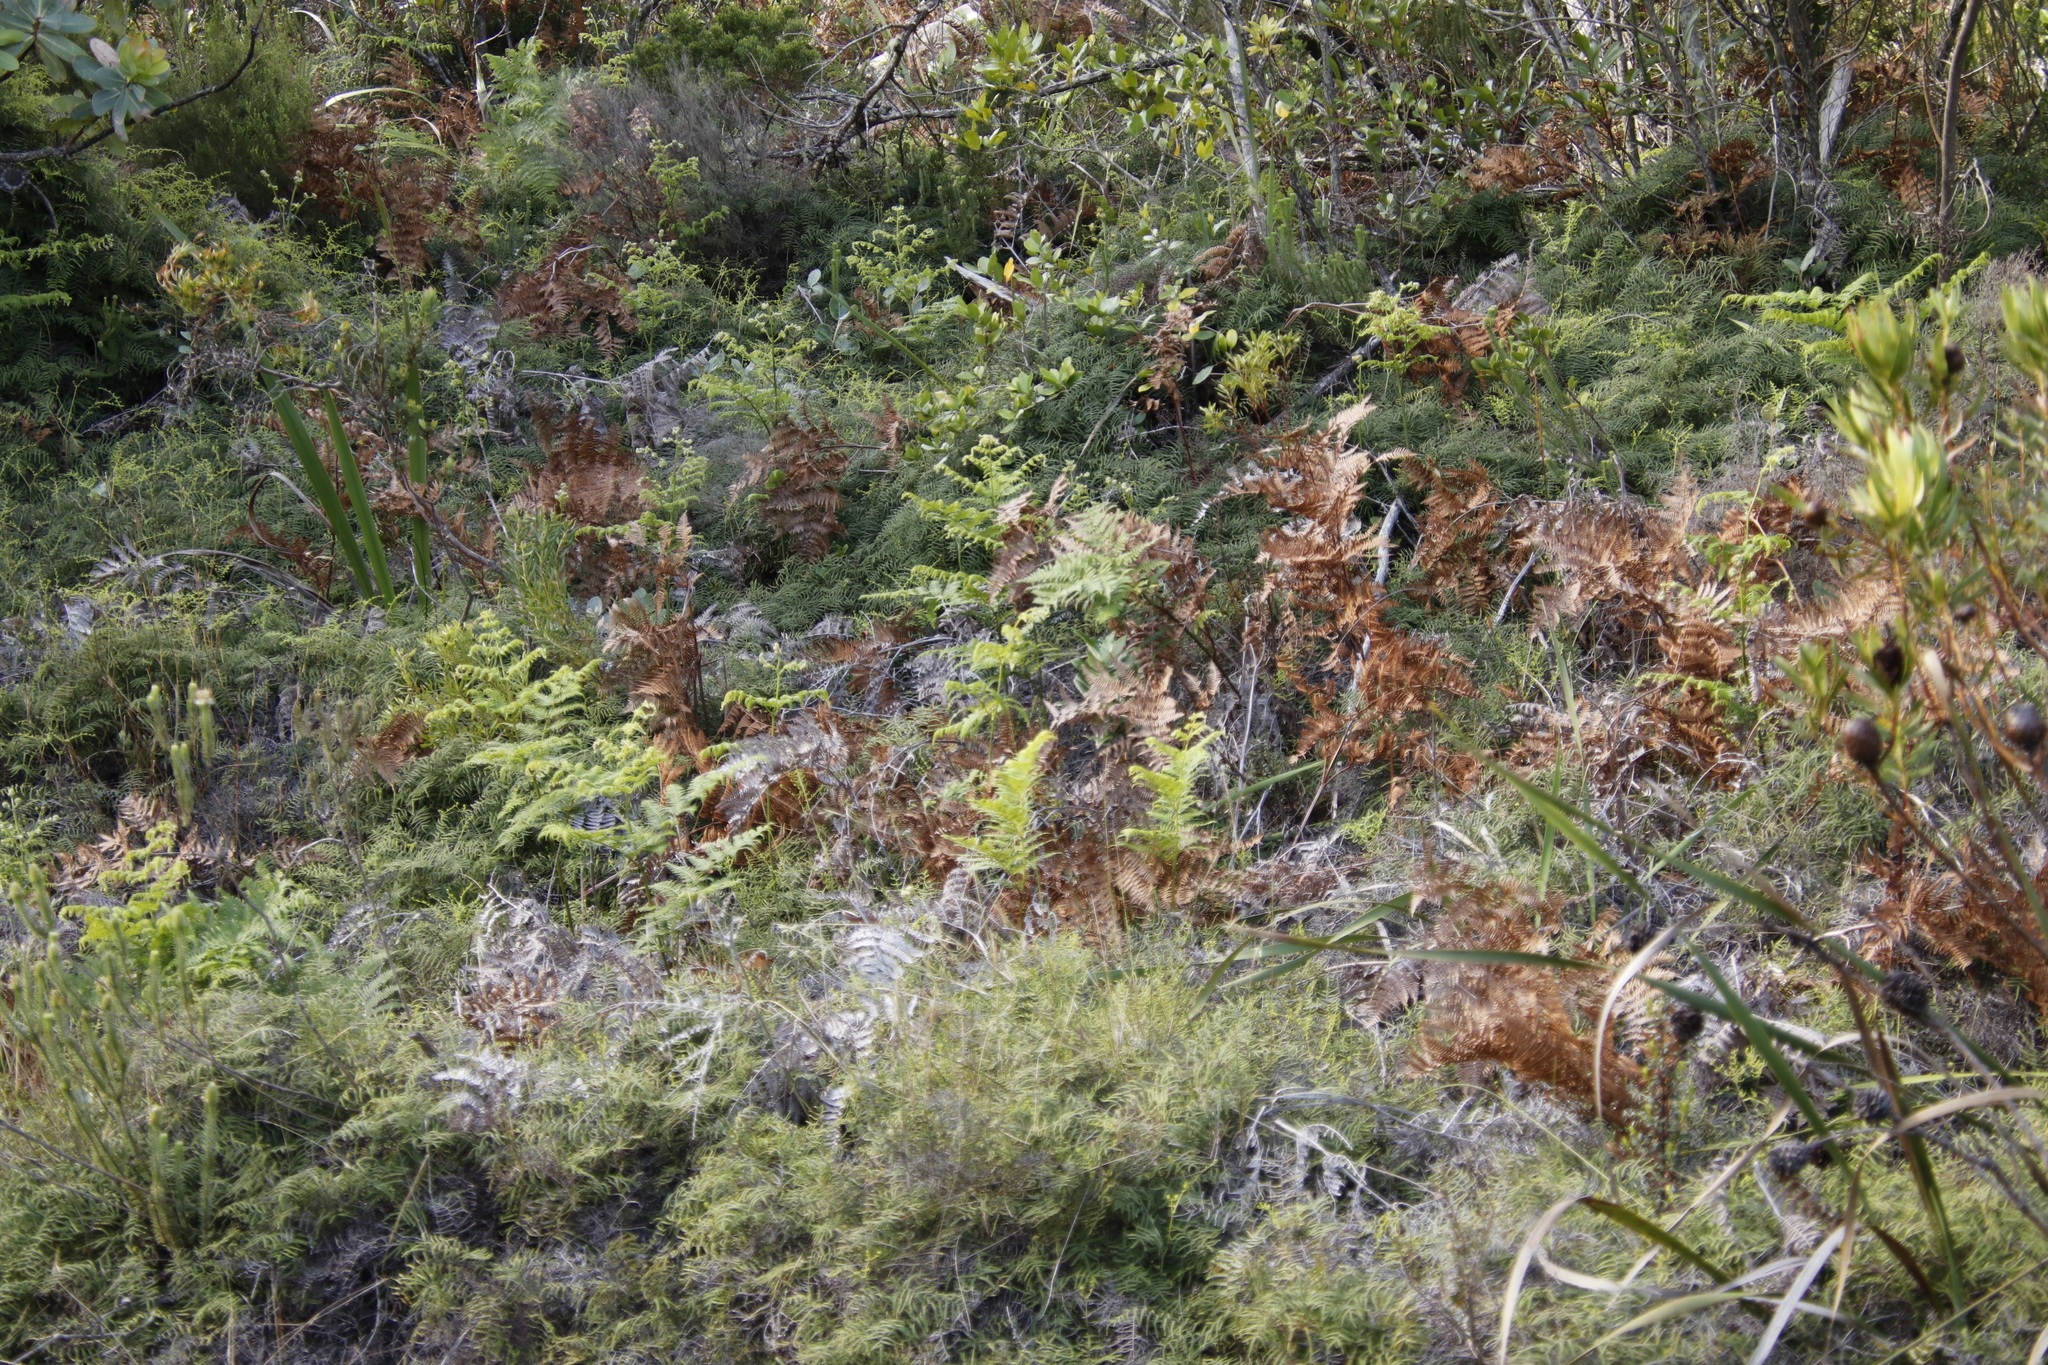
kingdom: Plantae
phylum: Tracheophyta
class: Polypodiopsida
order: Polypodiales
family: Dennstaedtiaceae
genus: Pteridium
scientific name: Pteridium aquilinum
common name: Bracken
